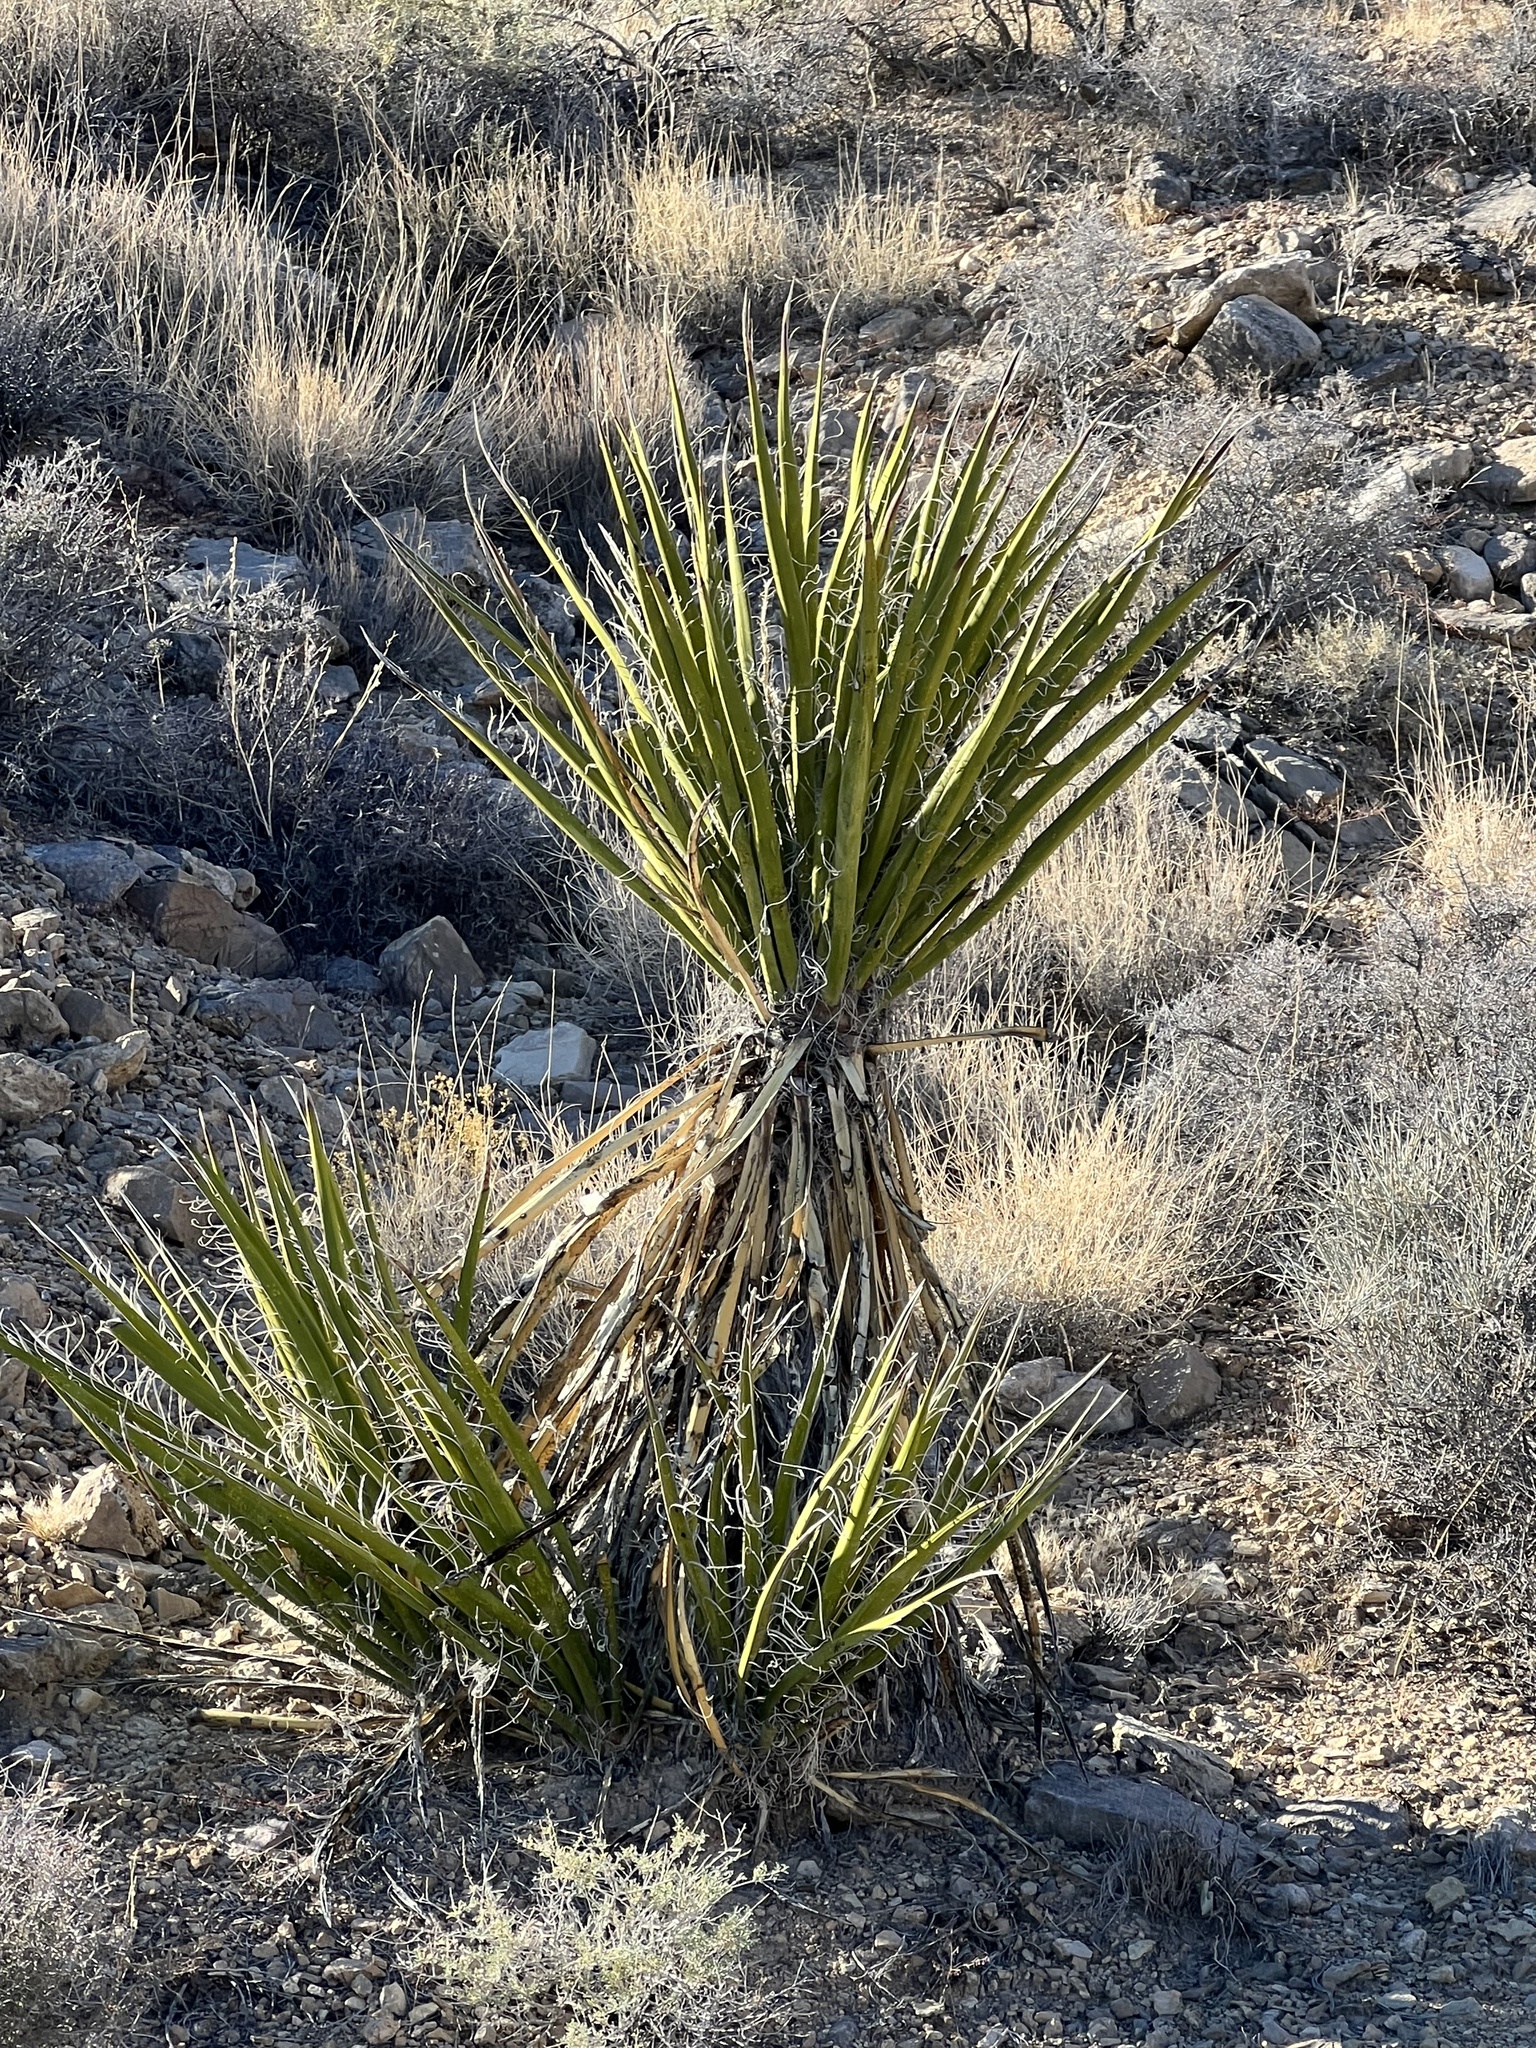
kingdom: Plantae
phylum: Tracheophyta
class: Liliopsida
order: Asparagales
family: Asparagaceae
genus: Yucca
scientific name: Yucca schidigera
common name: Mojave yucca
